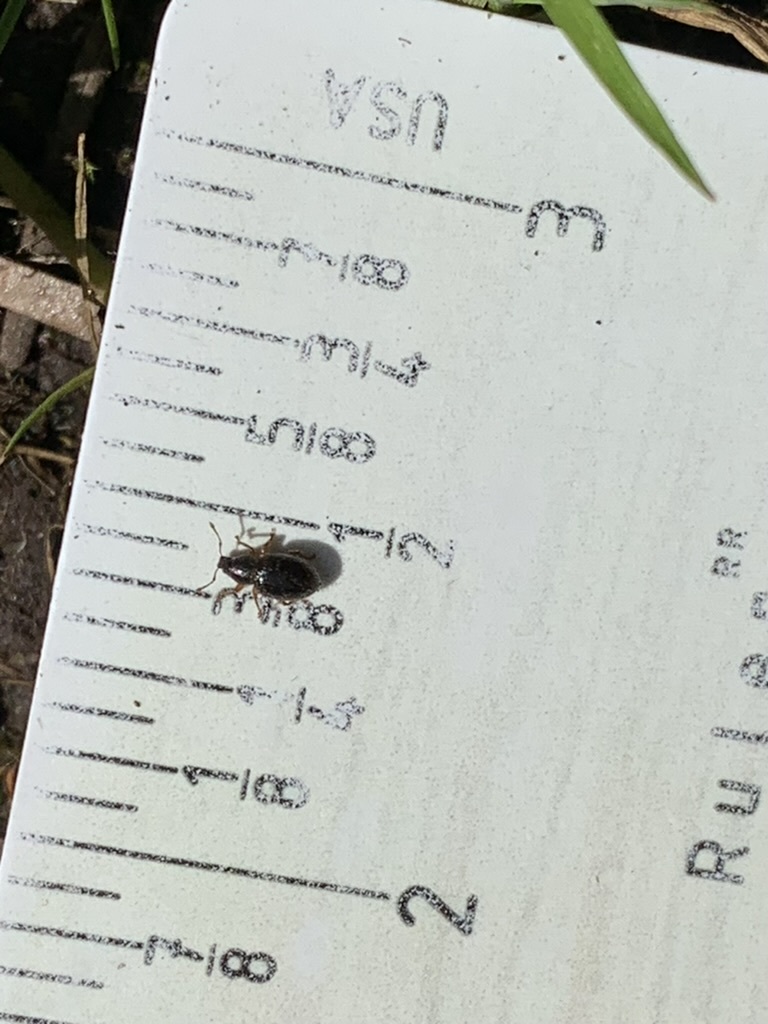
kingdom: Animalia
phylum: Arthropoda
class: Insecta
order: Coleoptera
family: Curculionidae
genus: Exomias
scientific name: Exomias pellucidus
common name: Hairy spider weevil
